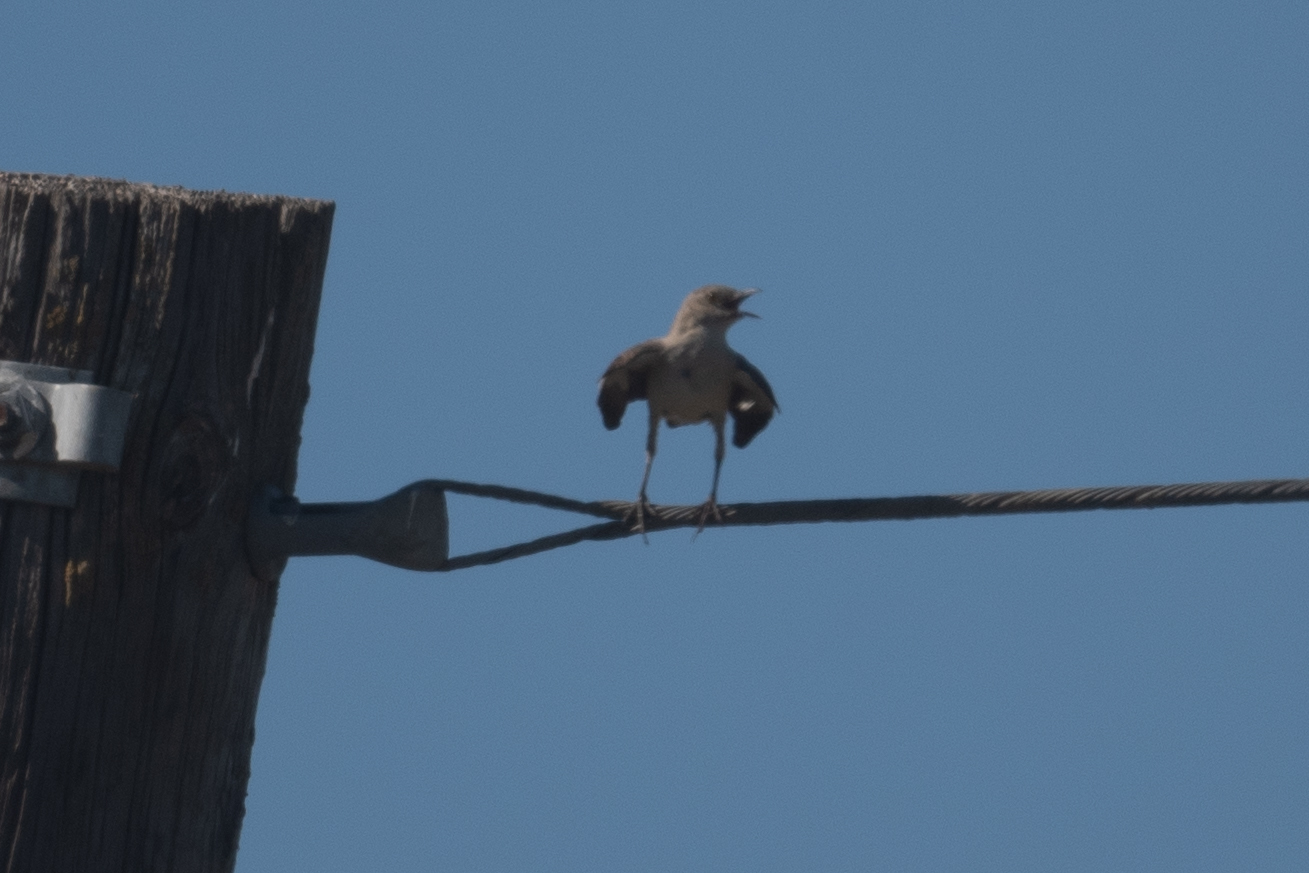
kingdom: Animalia
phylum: Chordata
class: Aves
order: Passeriformes
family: Mimidae
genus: Mimus
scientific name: Mimus polyglottos
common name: Northern mockingbird
